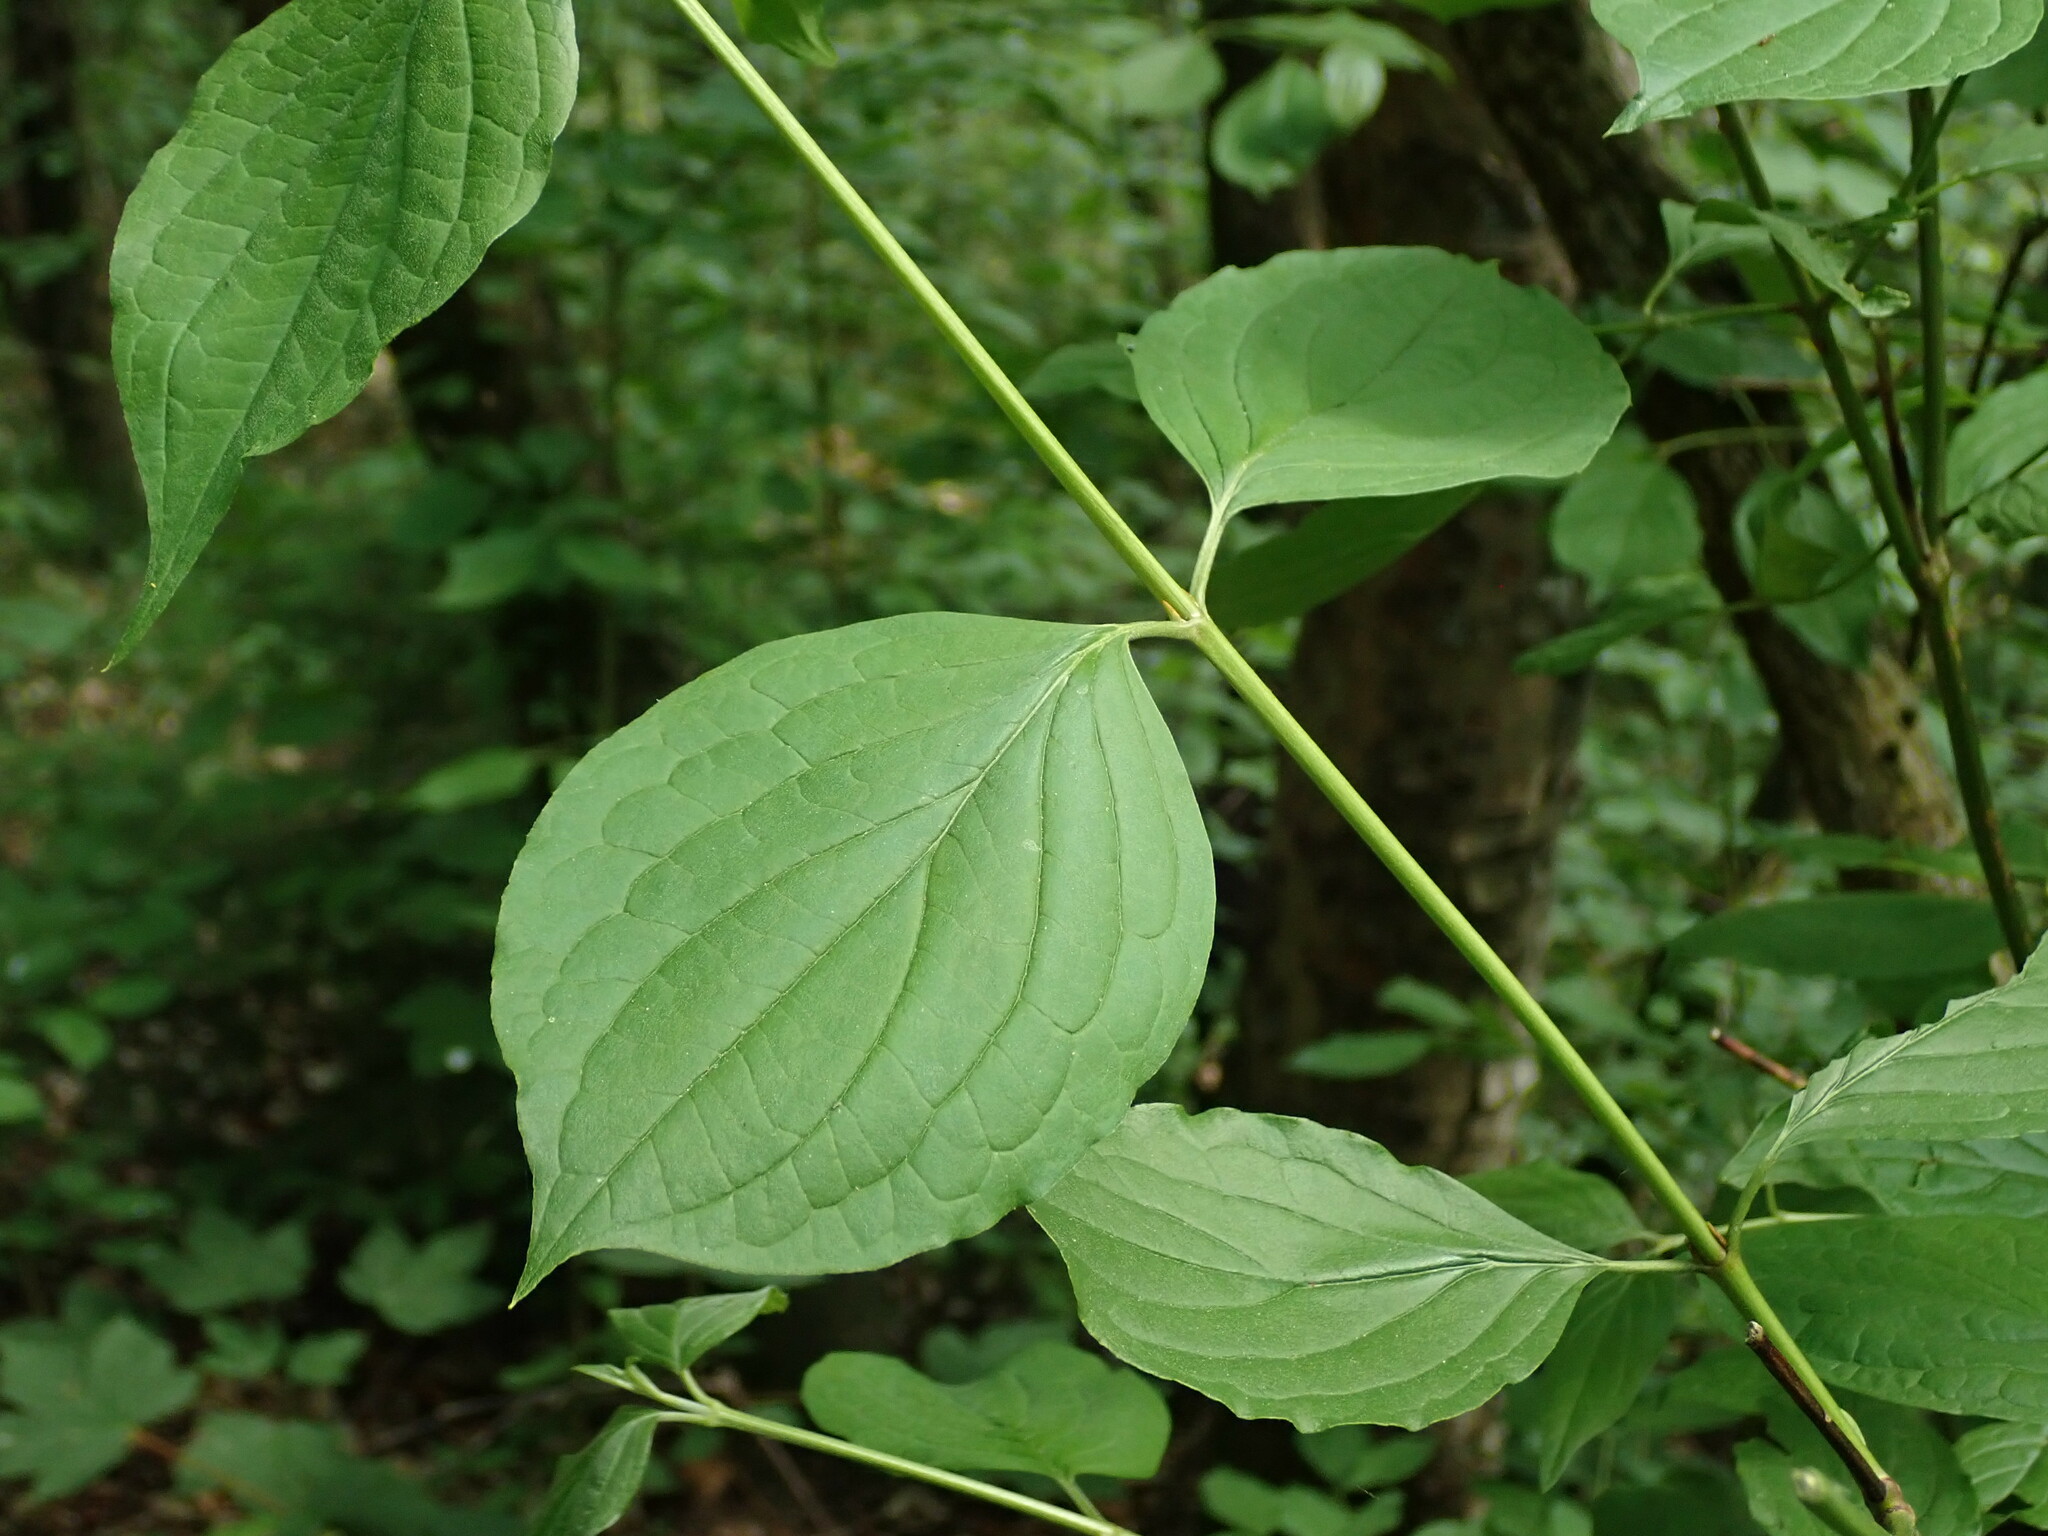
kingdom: Plantae
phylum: Tracheophyta
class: Magnoliopsida
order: Cornales
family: Cornaceae
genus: Cornus
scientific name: Cornus sanguinea
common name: Dogwood
